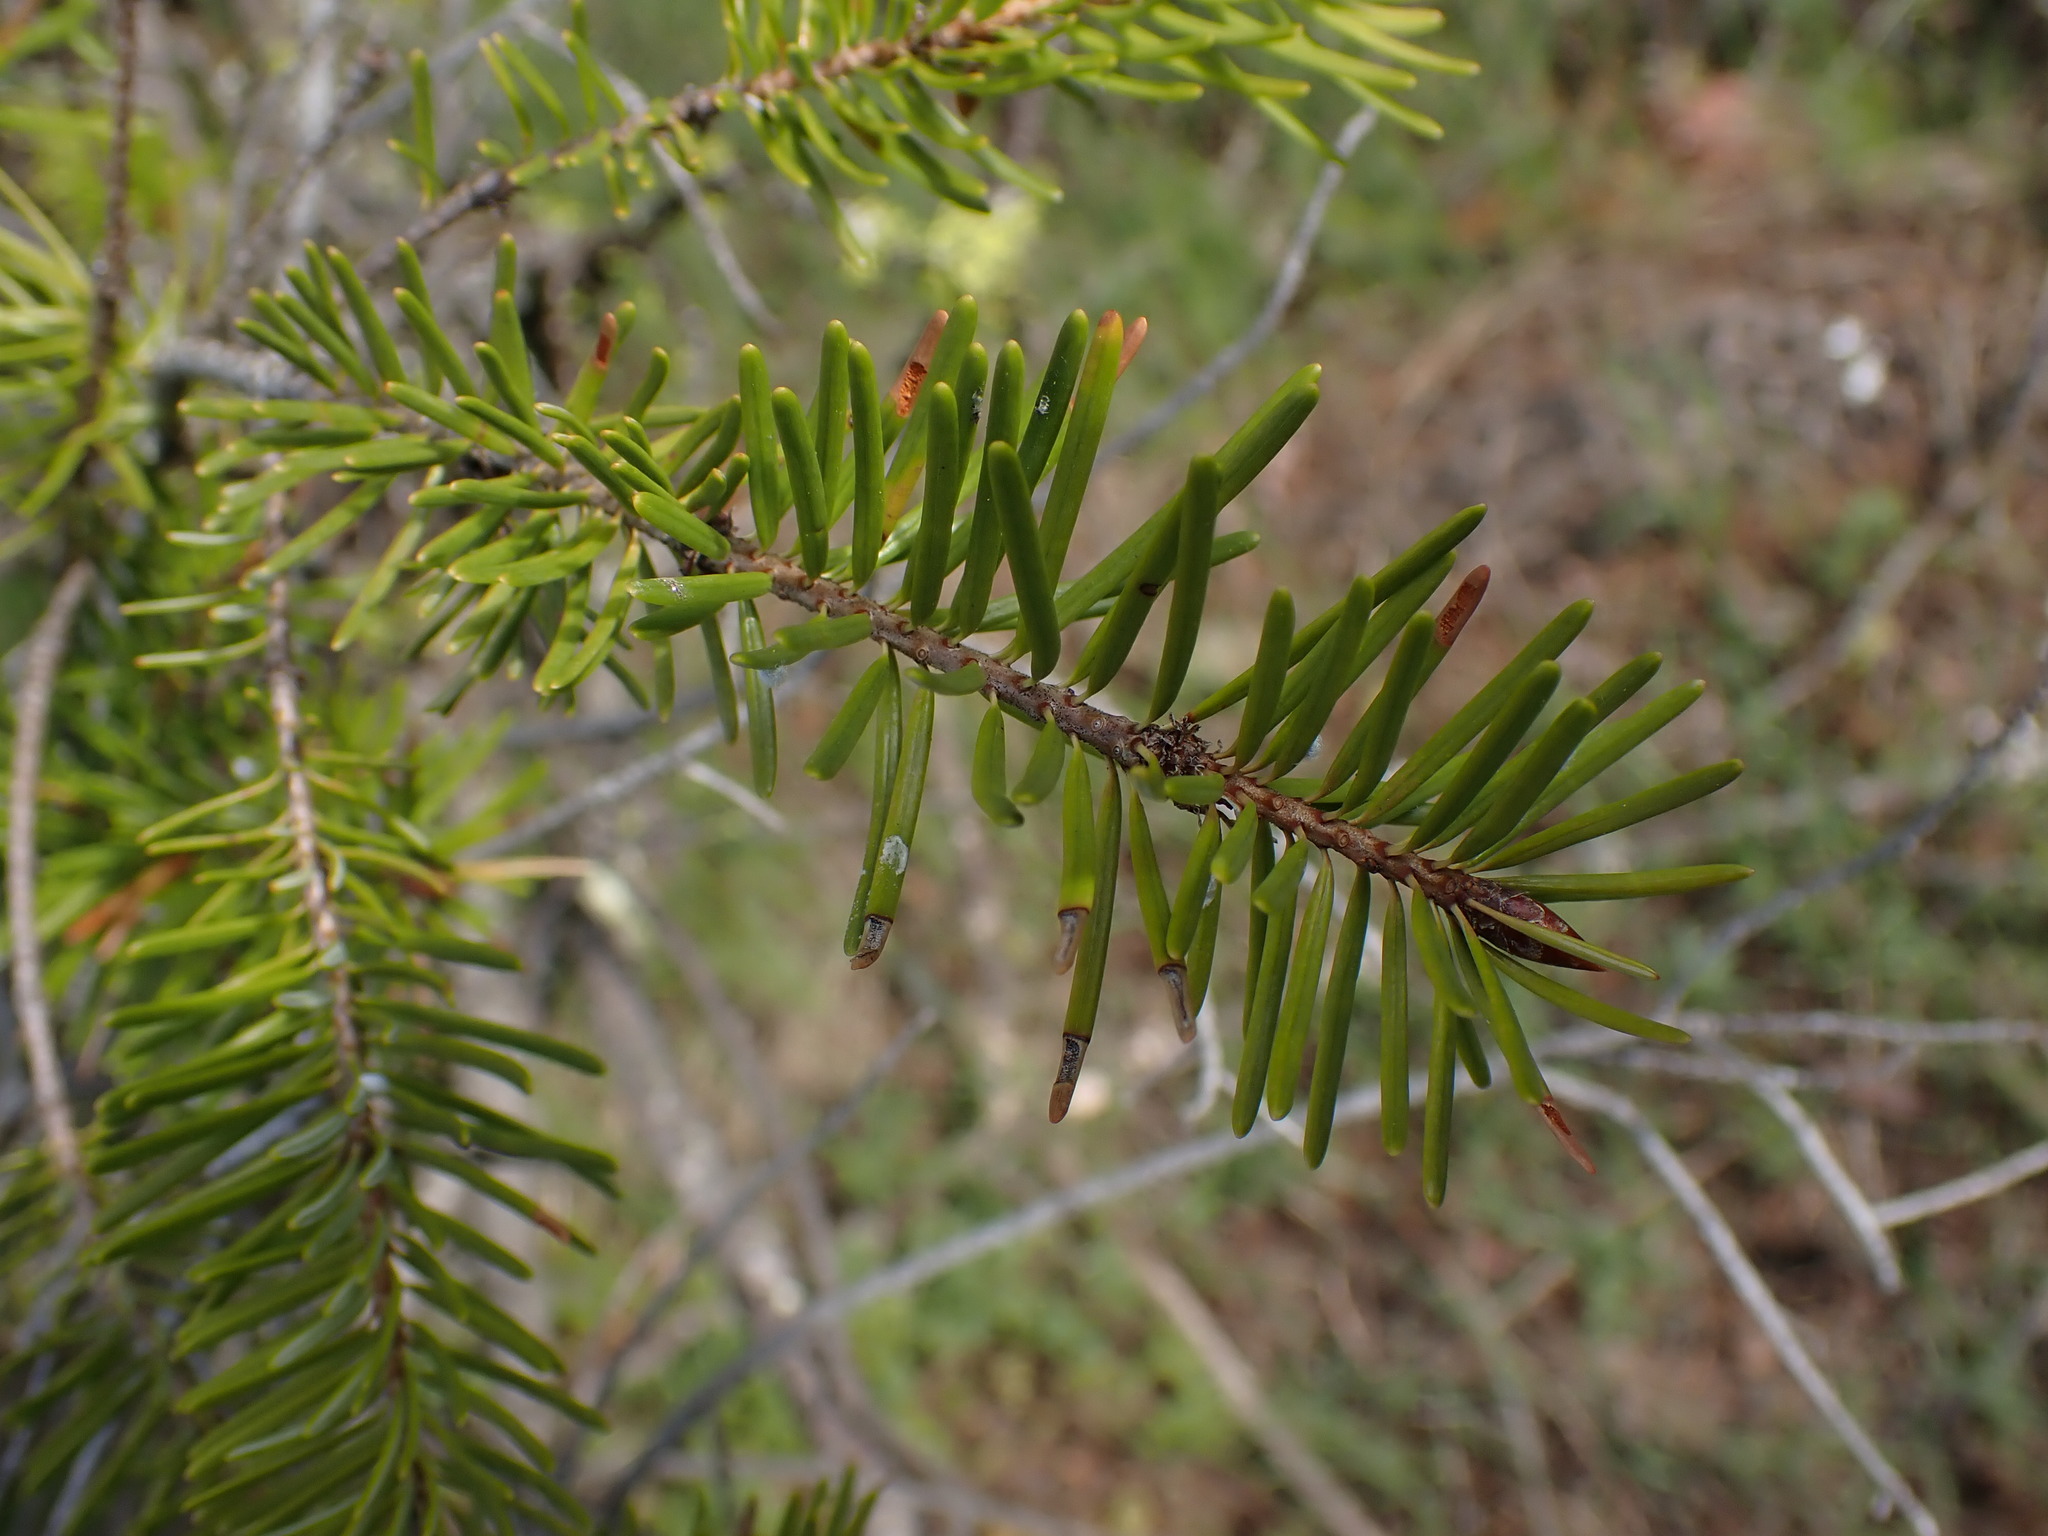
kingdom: Plantae
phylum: Tracheophyta
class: Pinopsida
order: Pinales
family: Pinaceae
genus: Pseudotsuga
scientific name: Pseudotsuga menziesii
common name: Douglas fir
